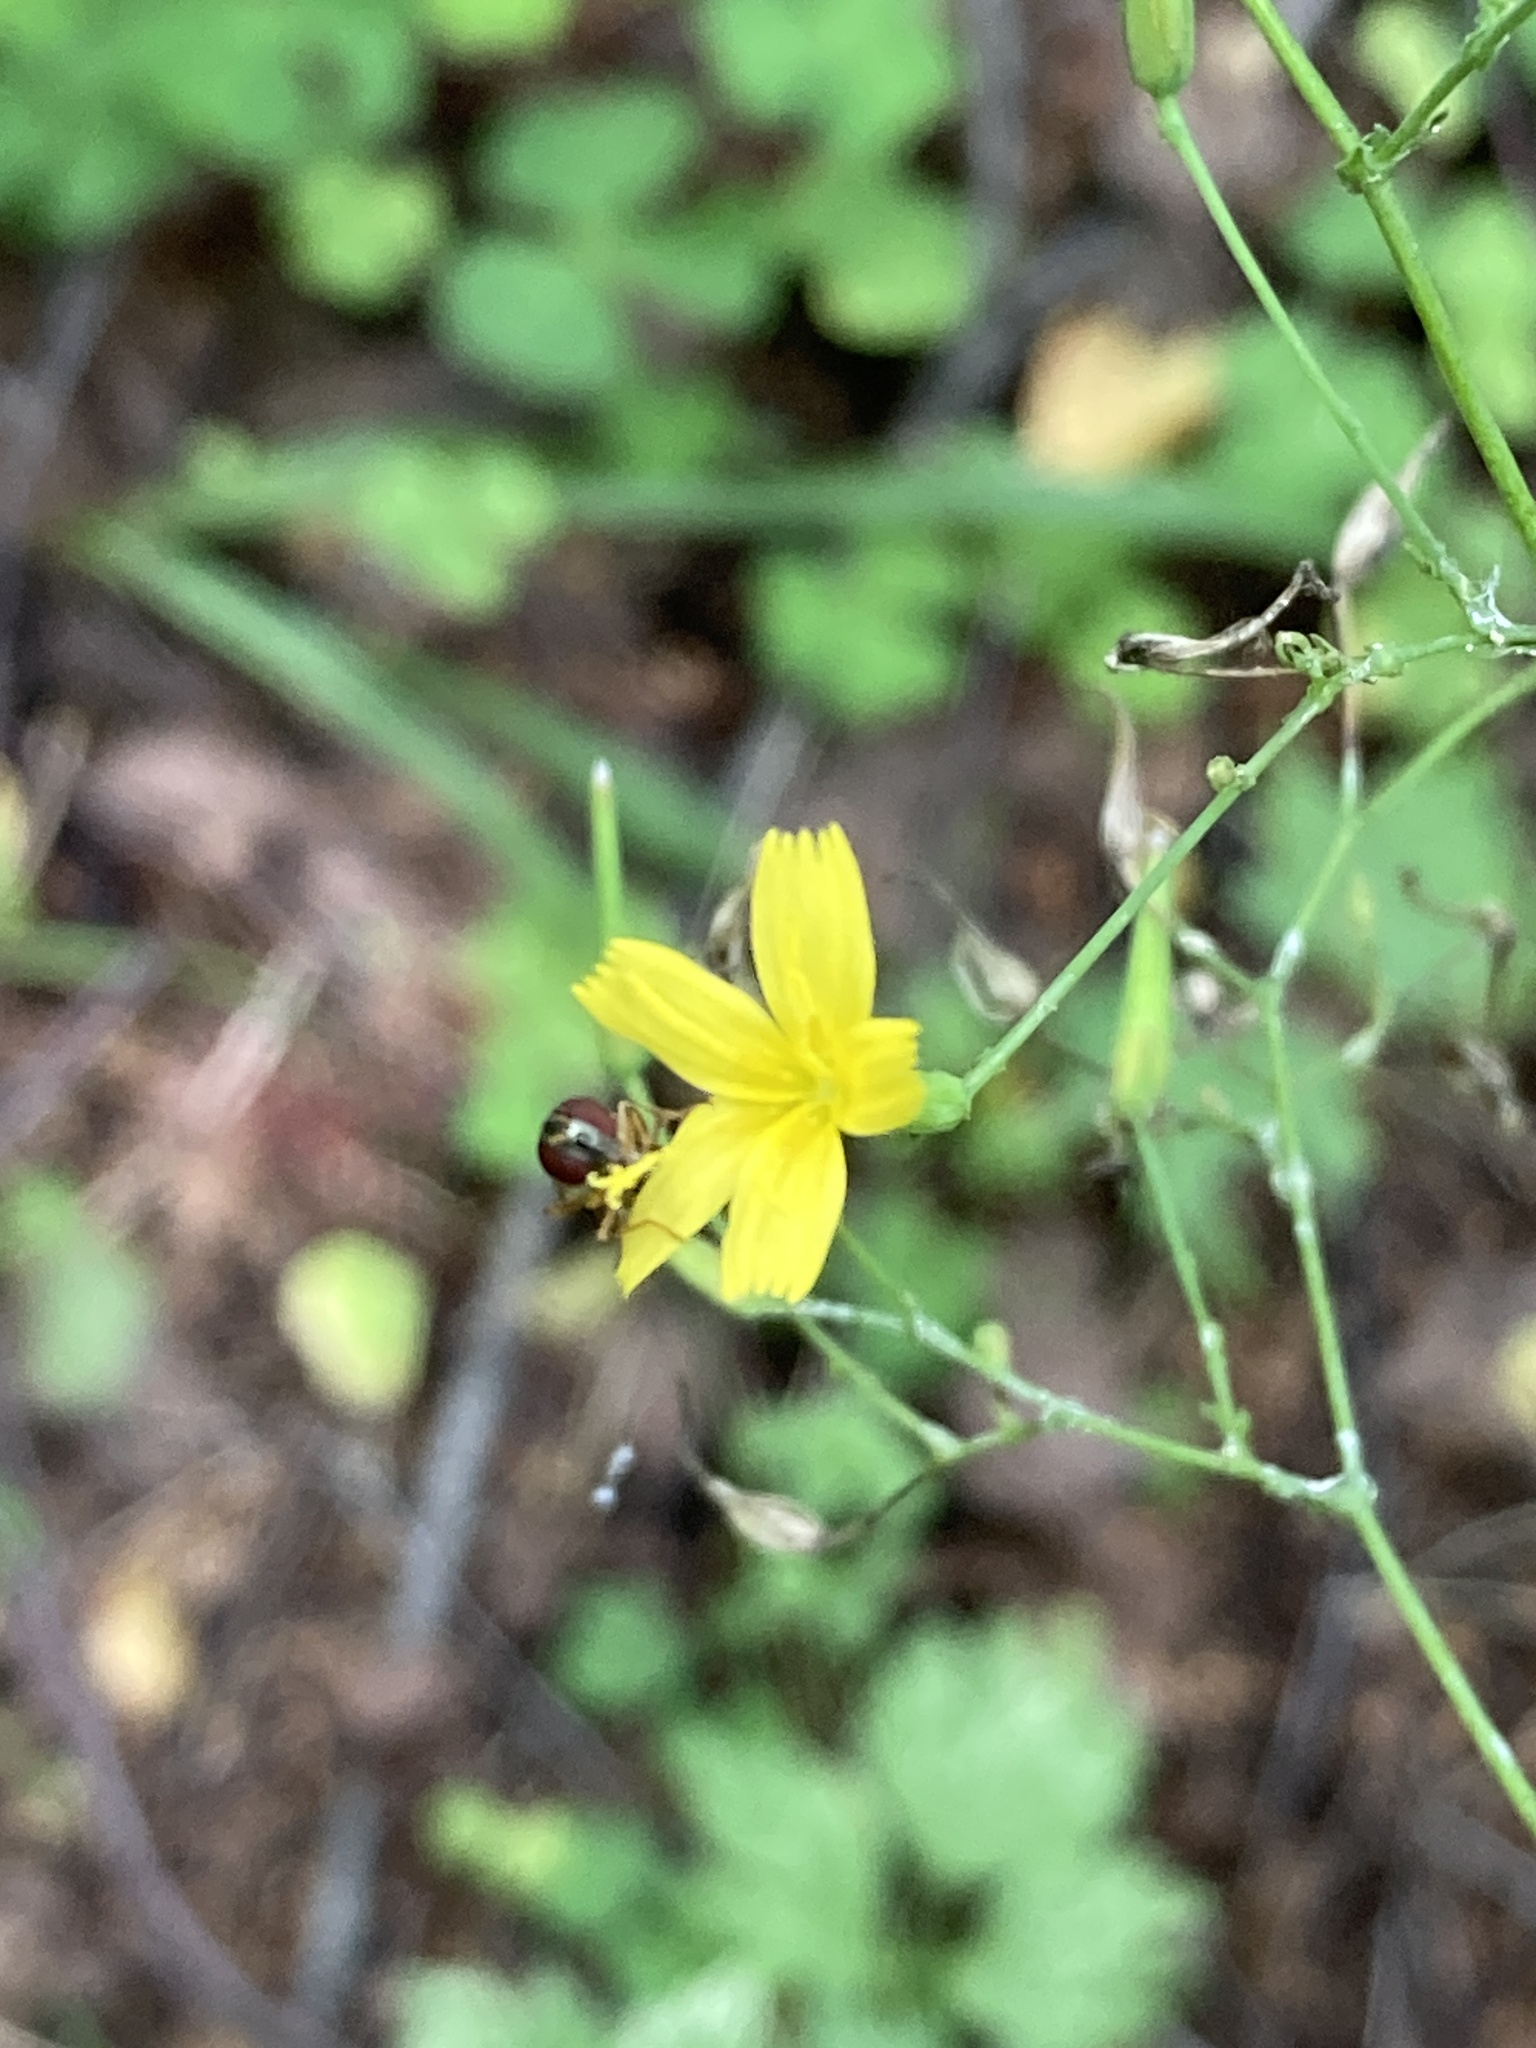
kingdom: Plantae
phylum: Tracheophyta
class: Magnoliopsida
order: Asterales
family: Asteraceae
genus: Mycelis
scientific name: Mycelis muralis
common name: Wall lettuce
